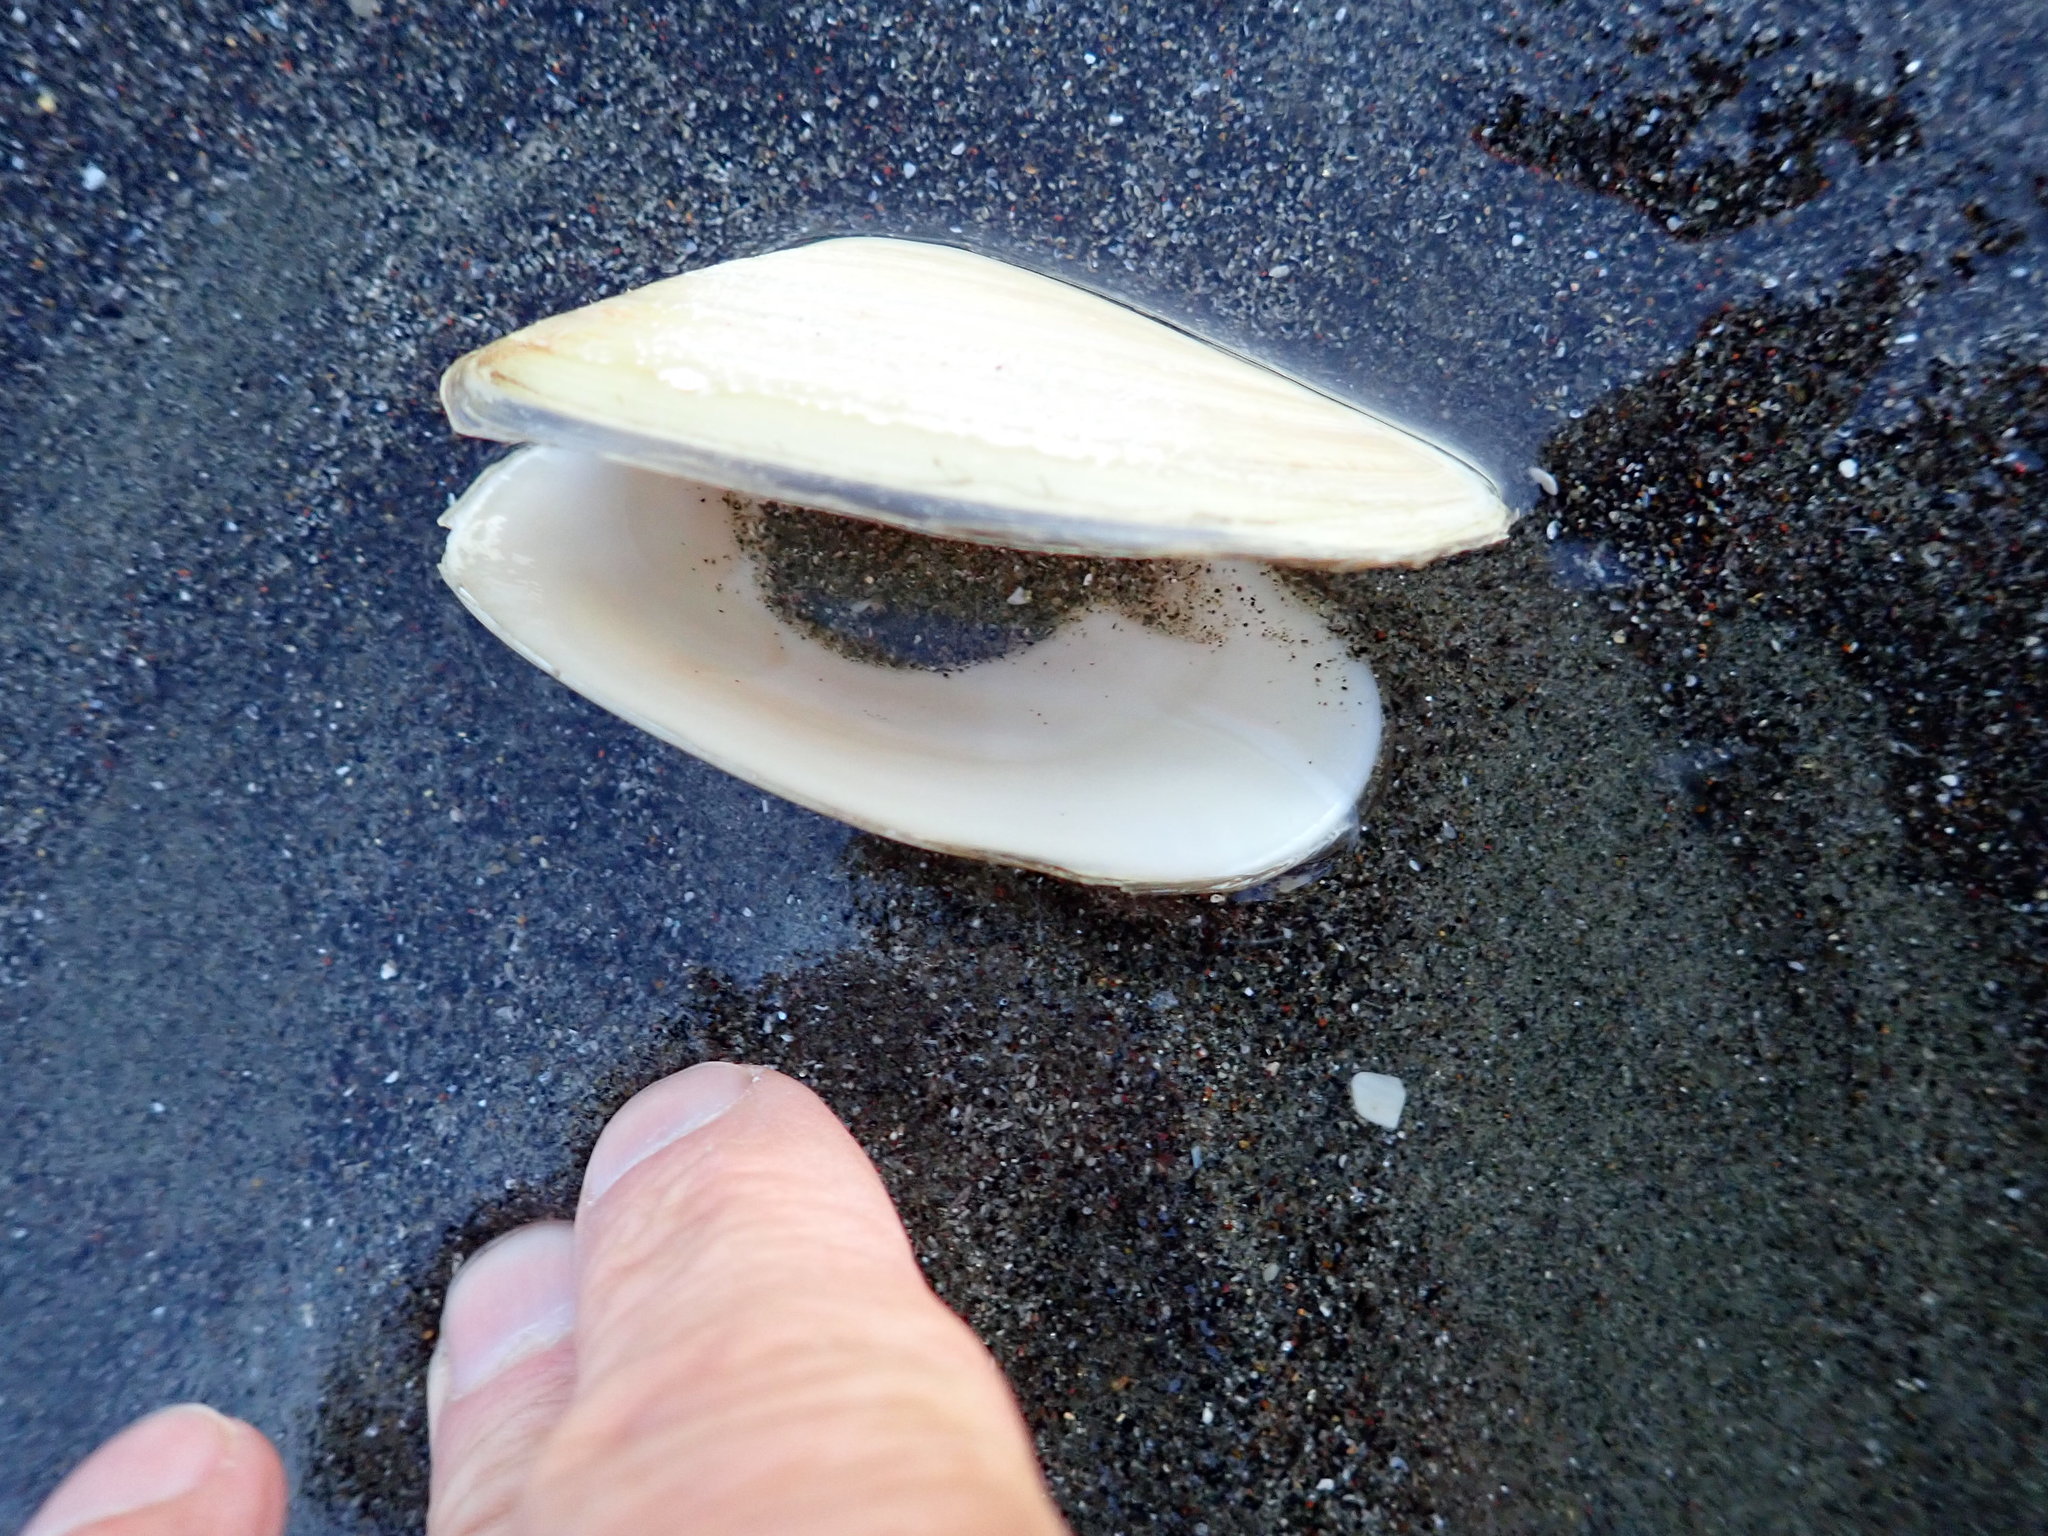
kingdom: Animalia
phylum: Mollusca
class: Bivalvia
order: Venerida
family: Mesodesmatidae
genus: Paphies
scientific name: Paphies subtriangulata
